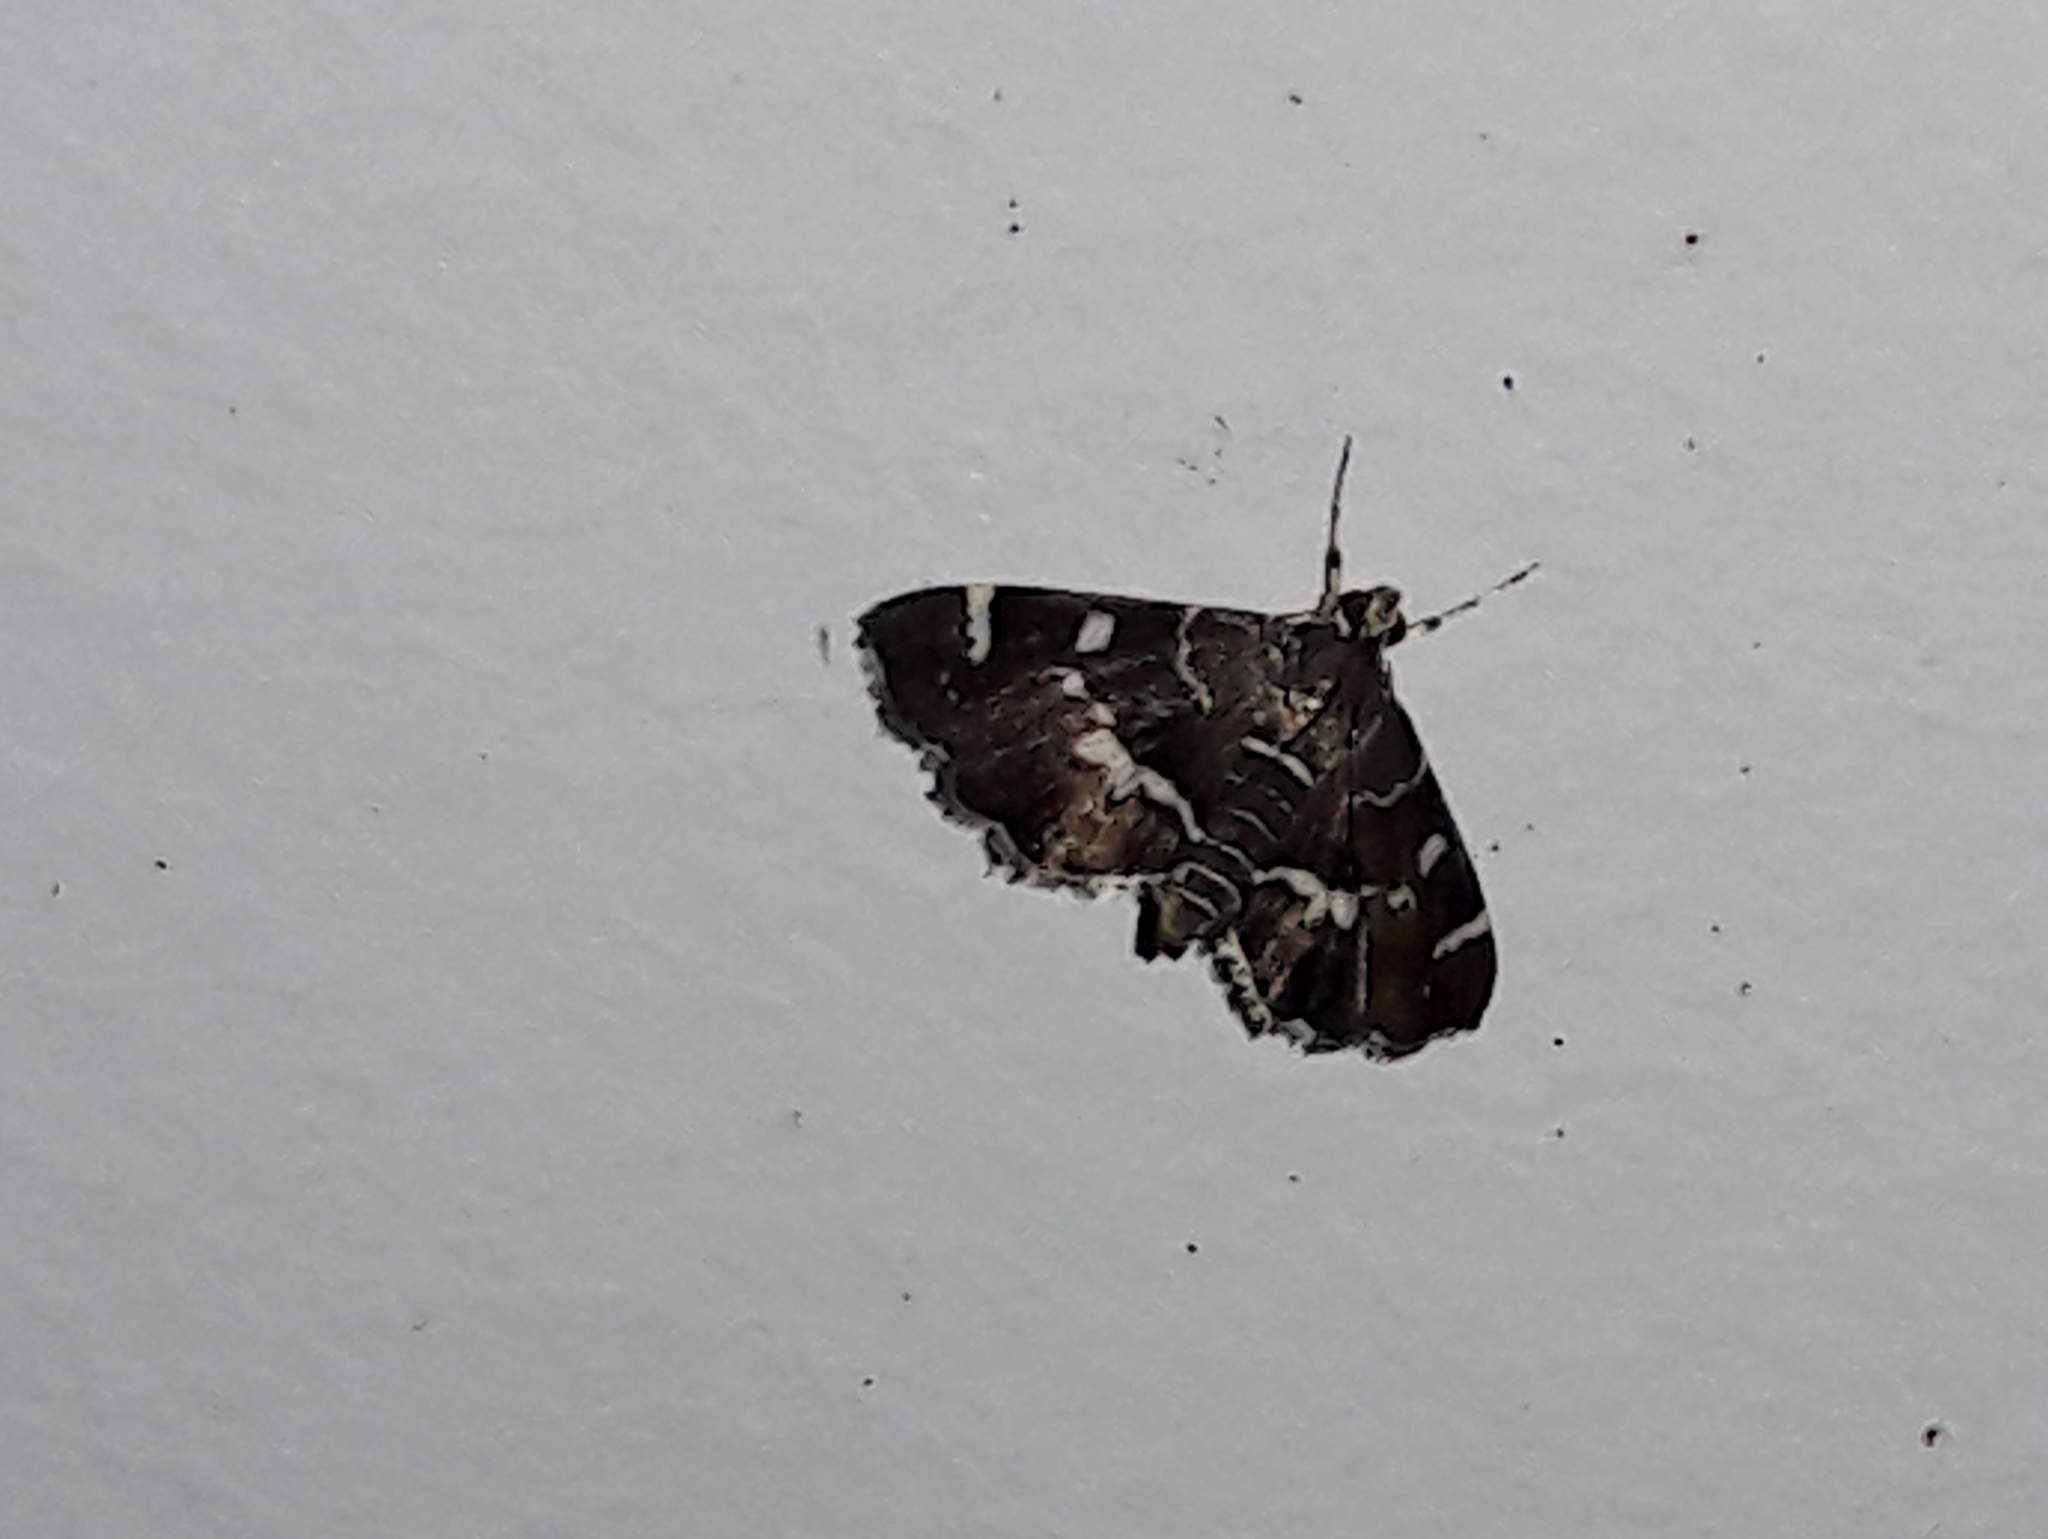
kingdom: Animalia
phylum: Arthropoda
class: Insecta
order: Lepidoptera
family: Crambidae
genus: Hymenia
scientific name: Hymenia perspectalis
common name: Spotted beet webworm
